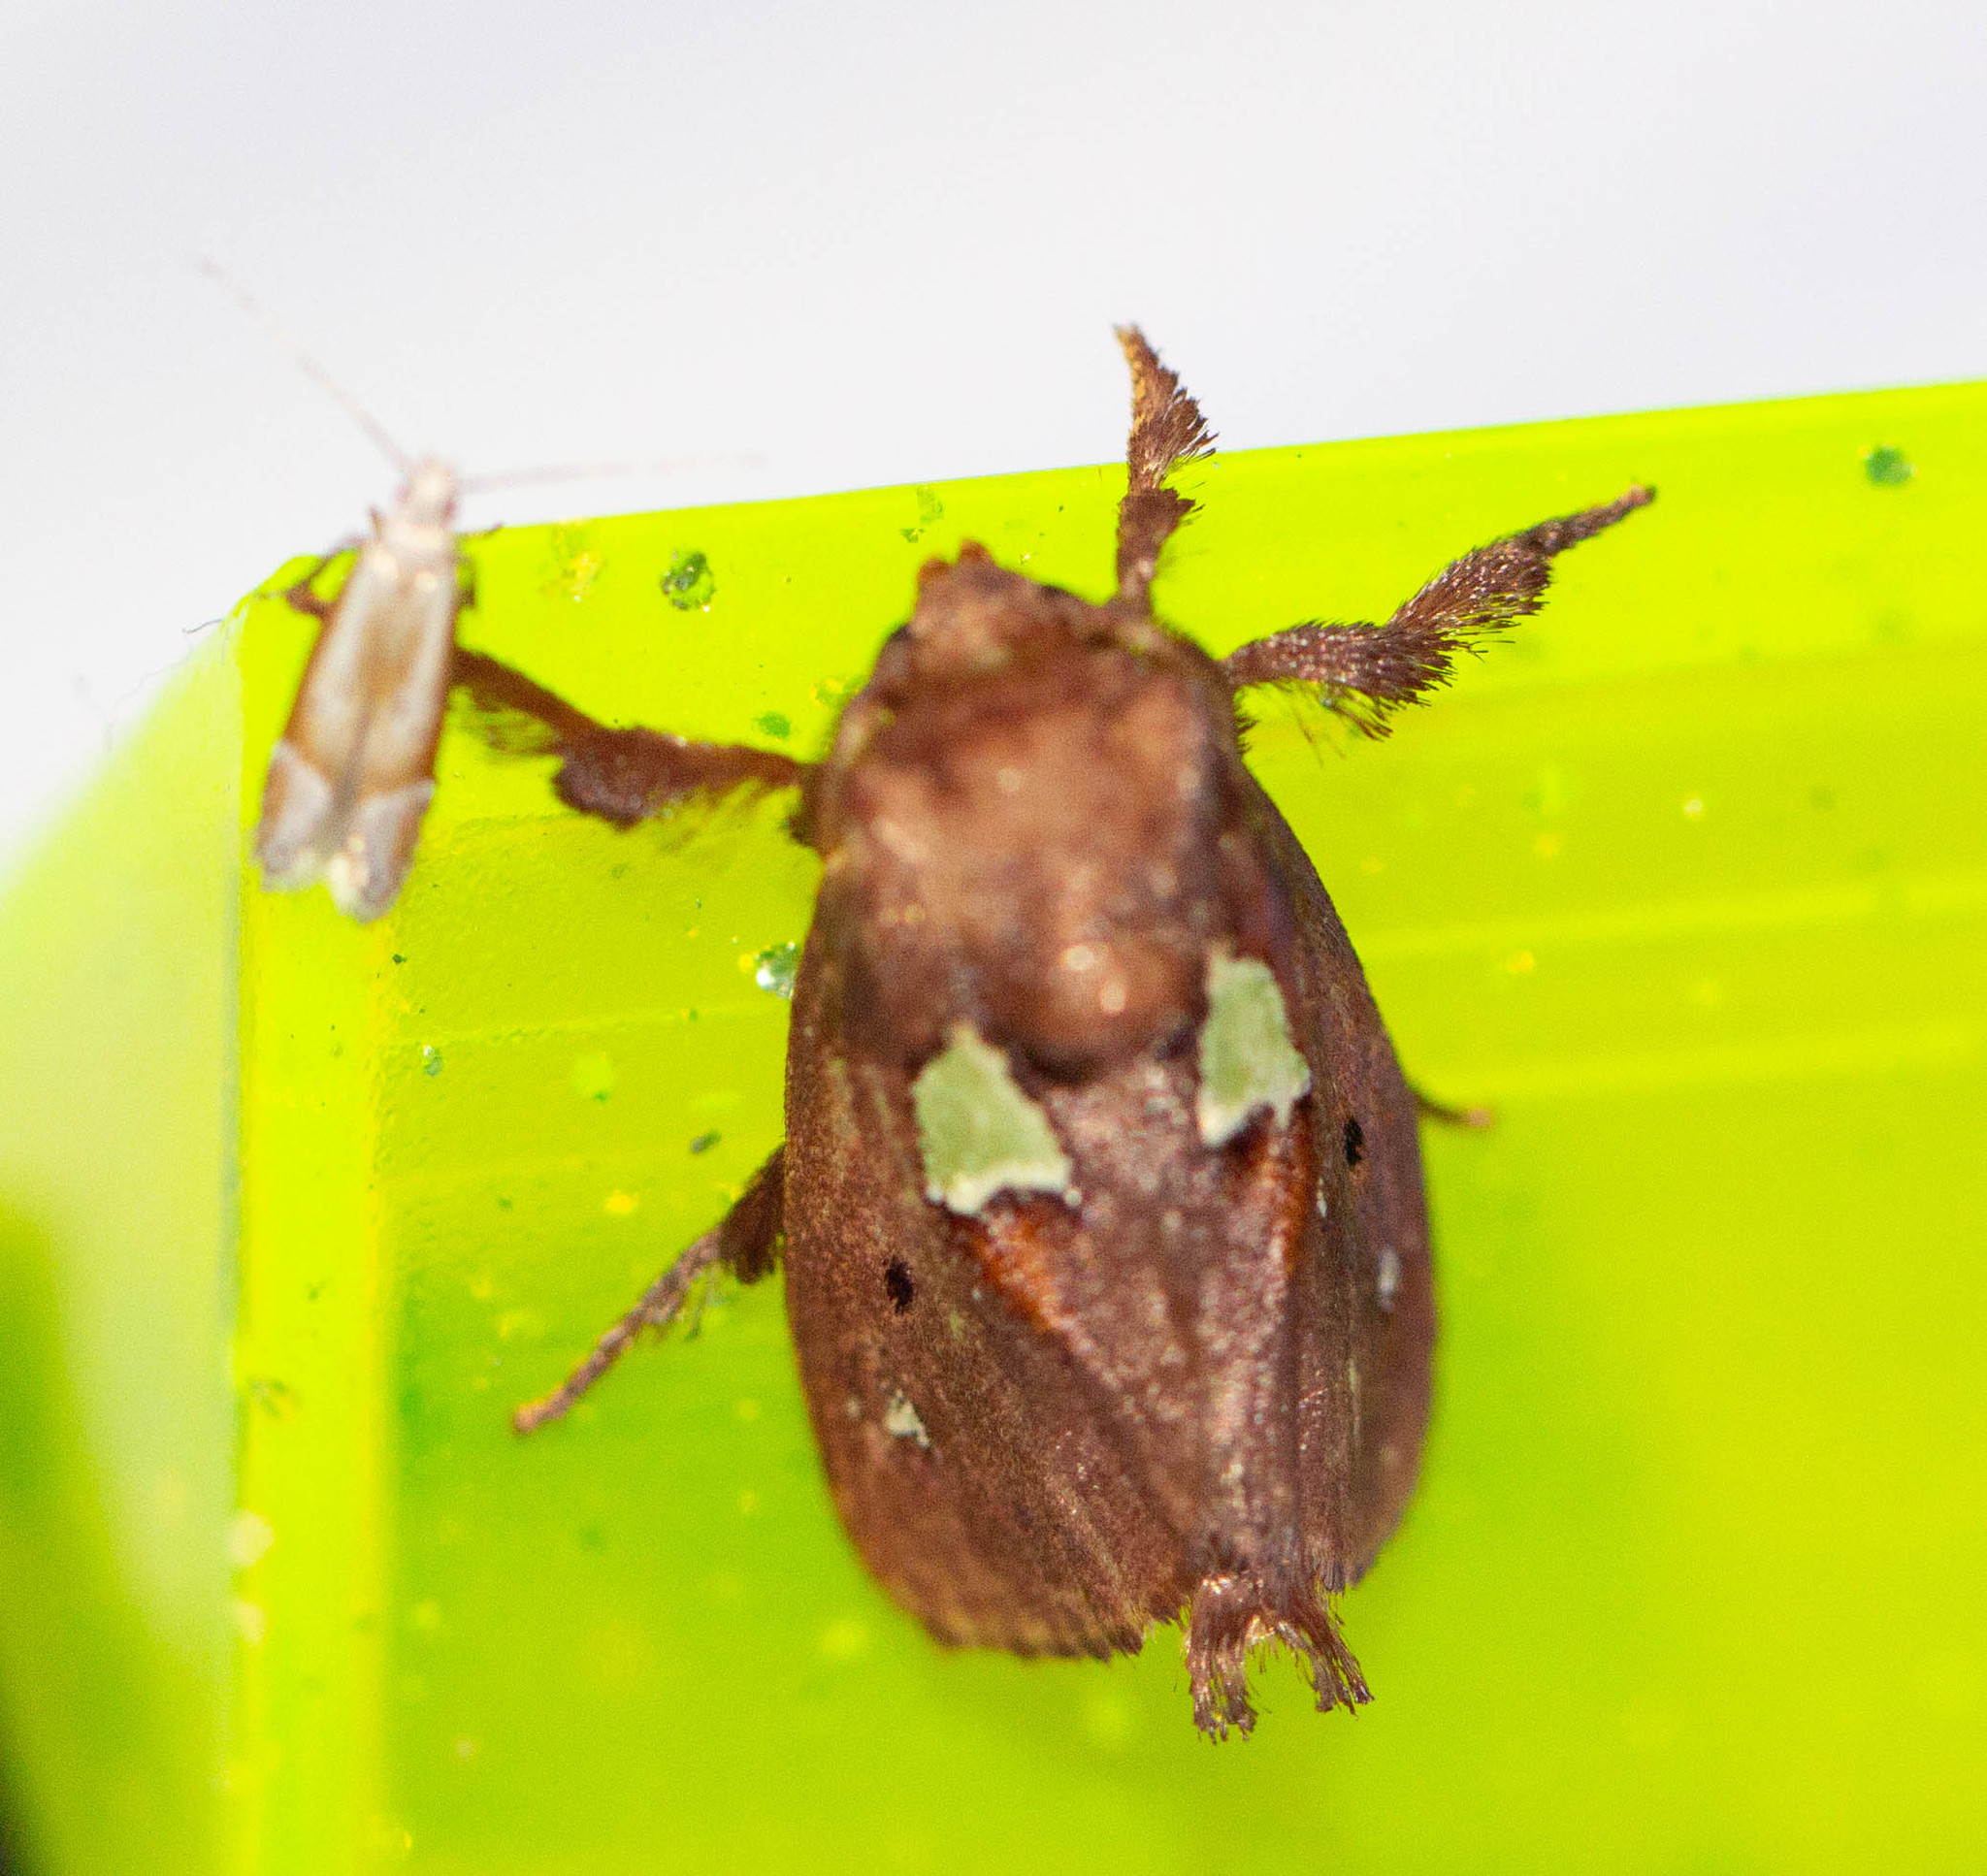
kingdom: Animalia
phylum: Arthropoda
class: Insecta
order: Lepidoptera
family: Limacodidae
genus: Euclea
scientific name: Euclea delphinii
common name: Spiny oak-slug moth
